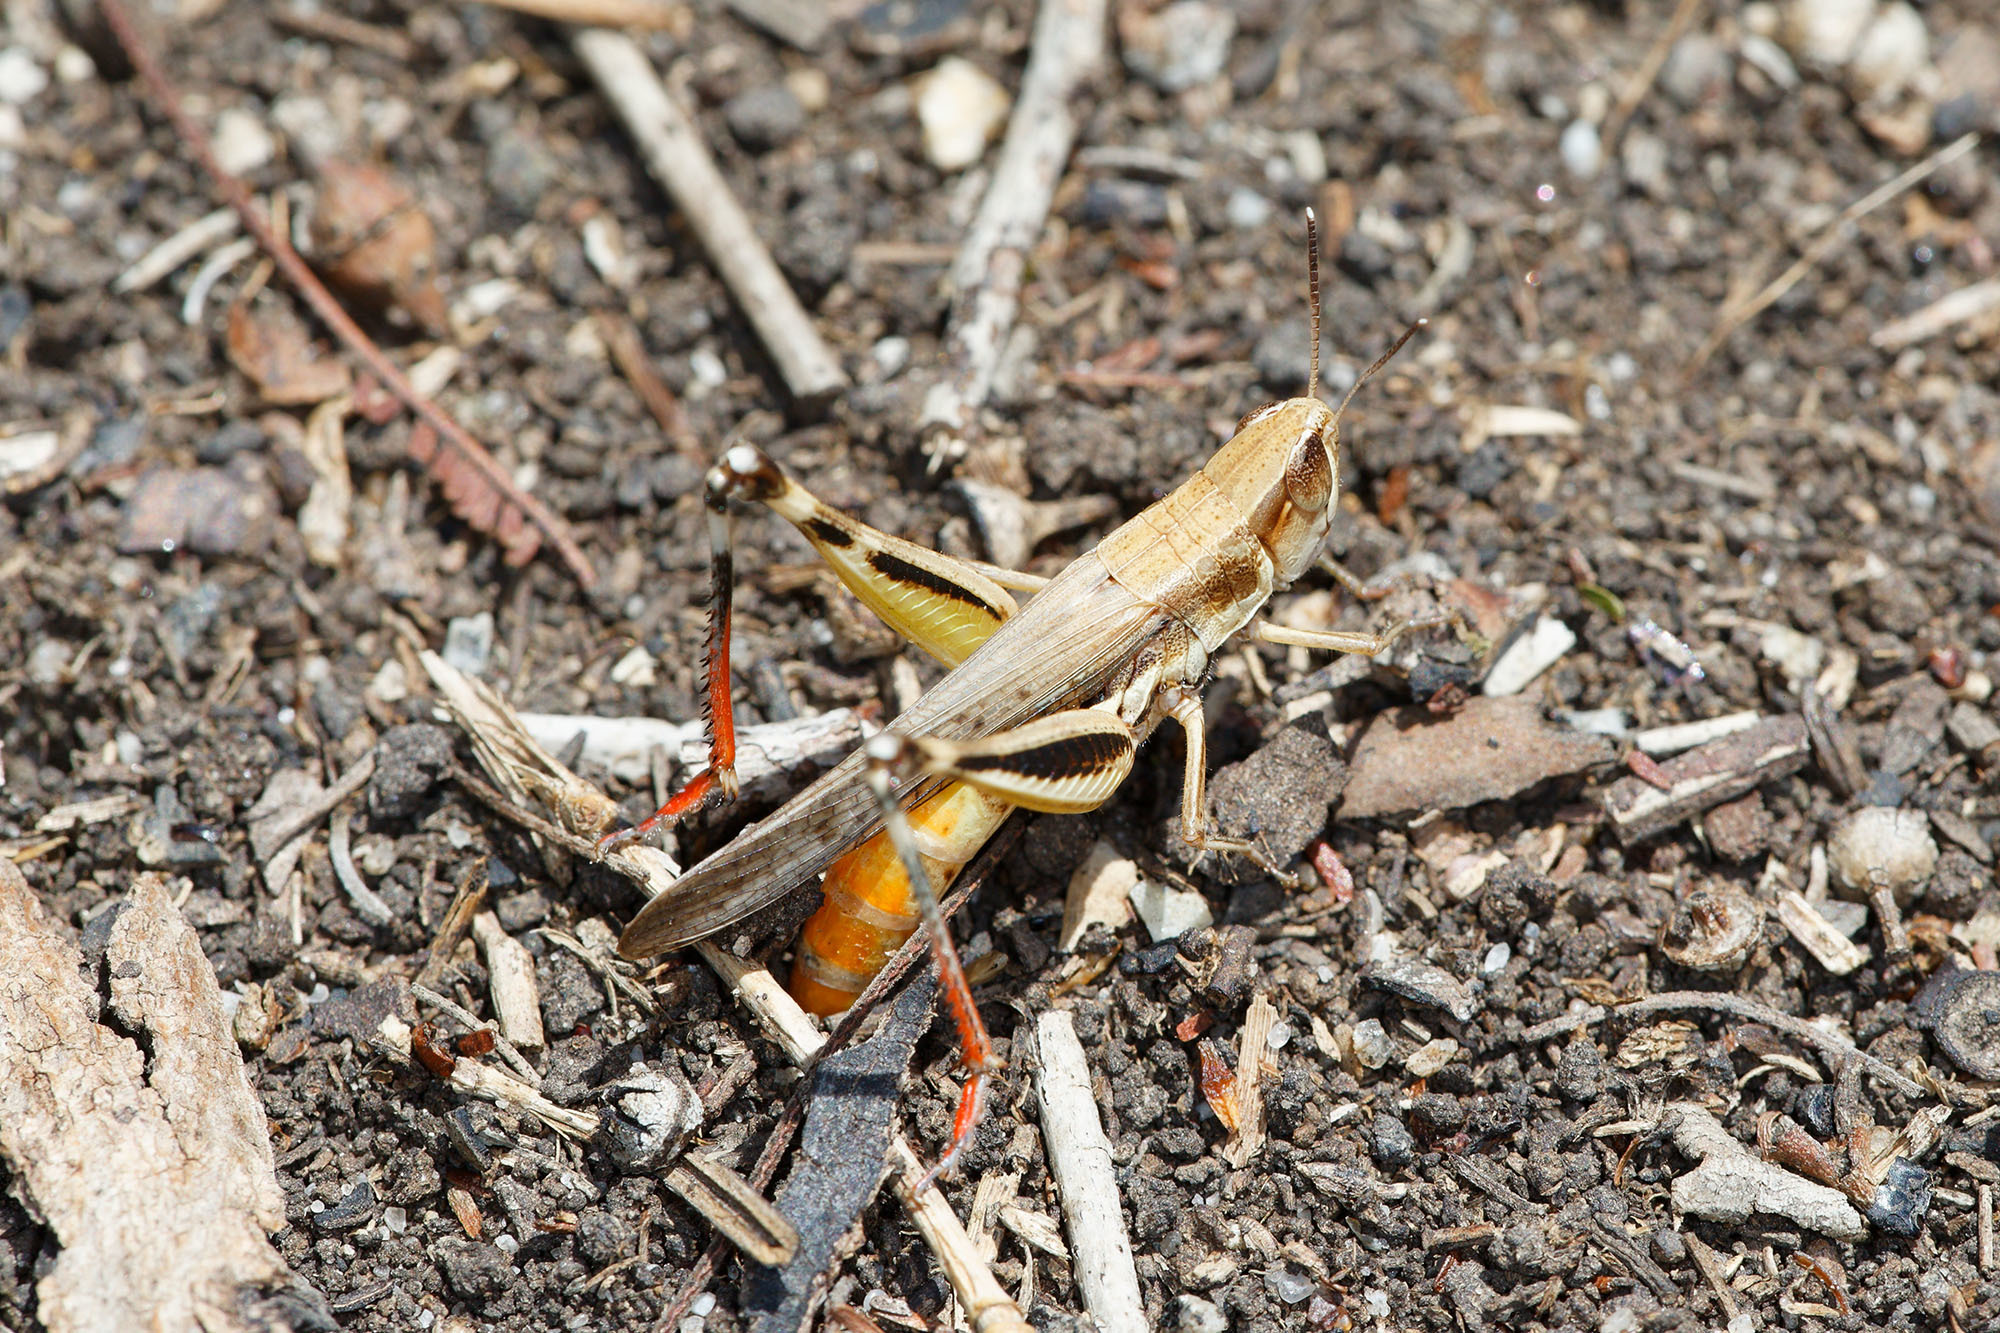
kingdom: Animalia
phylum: Arthropoda
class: Insecta
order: Orthoptera
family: Acrididae
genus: Macrotona
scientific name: Macrotona
